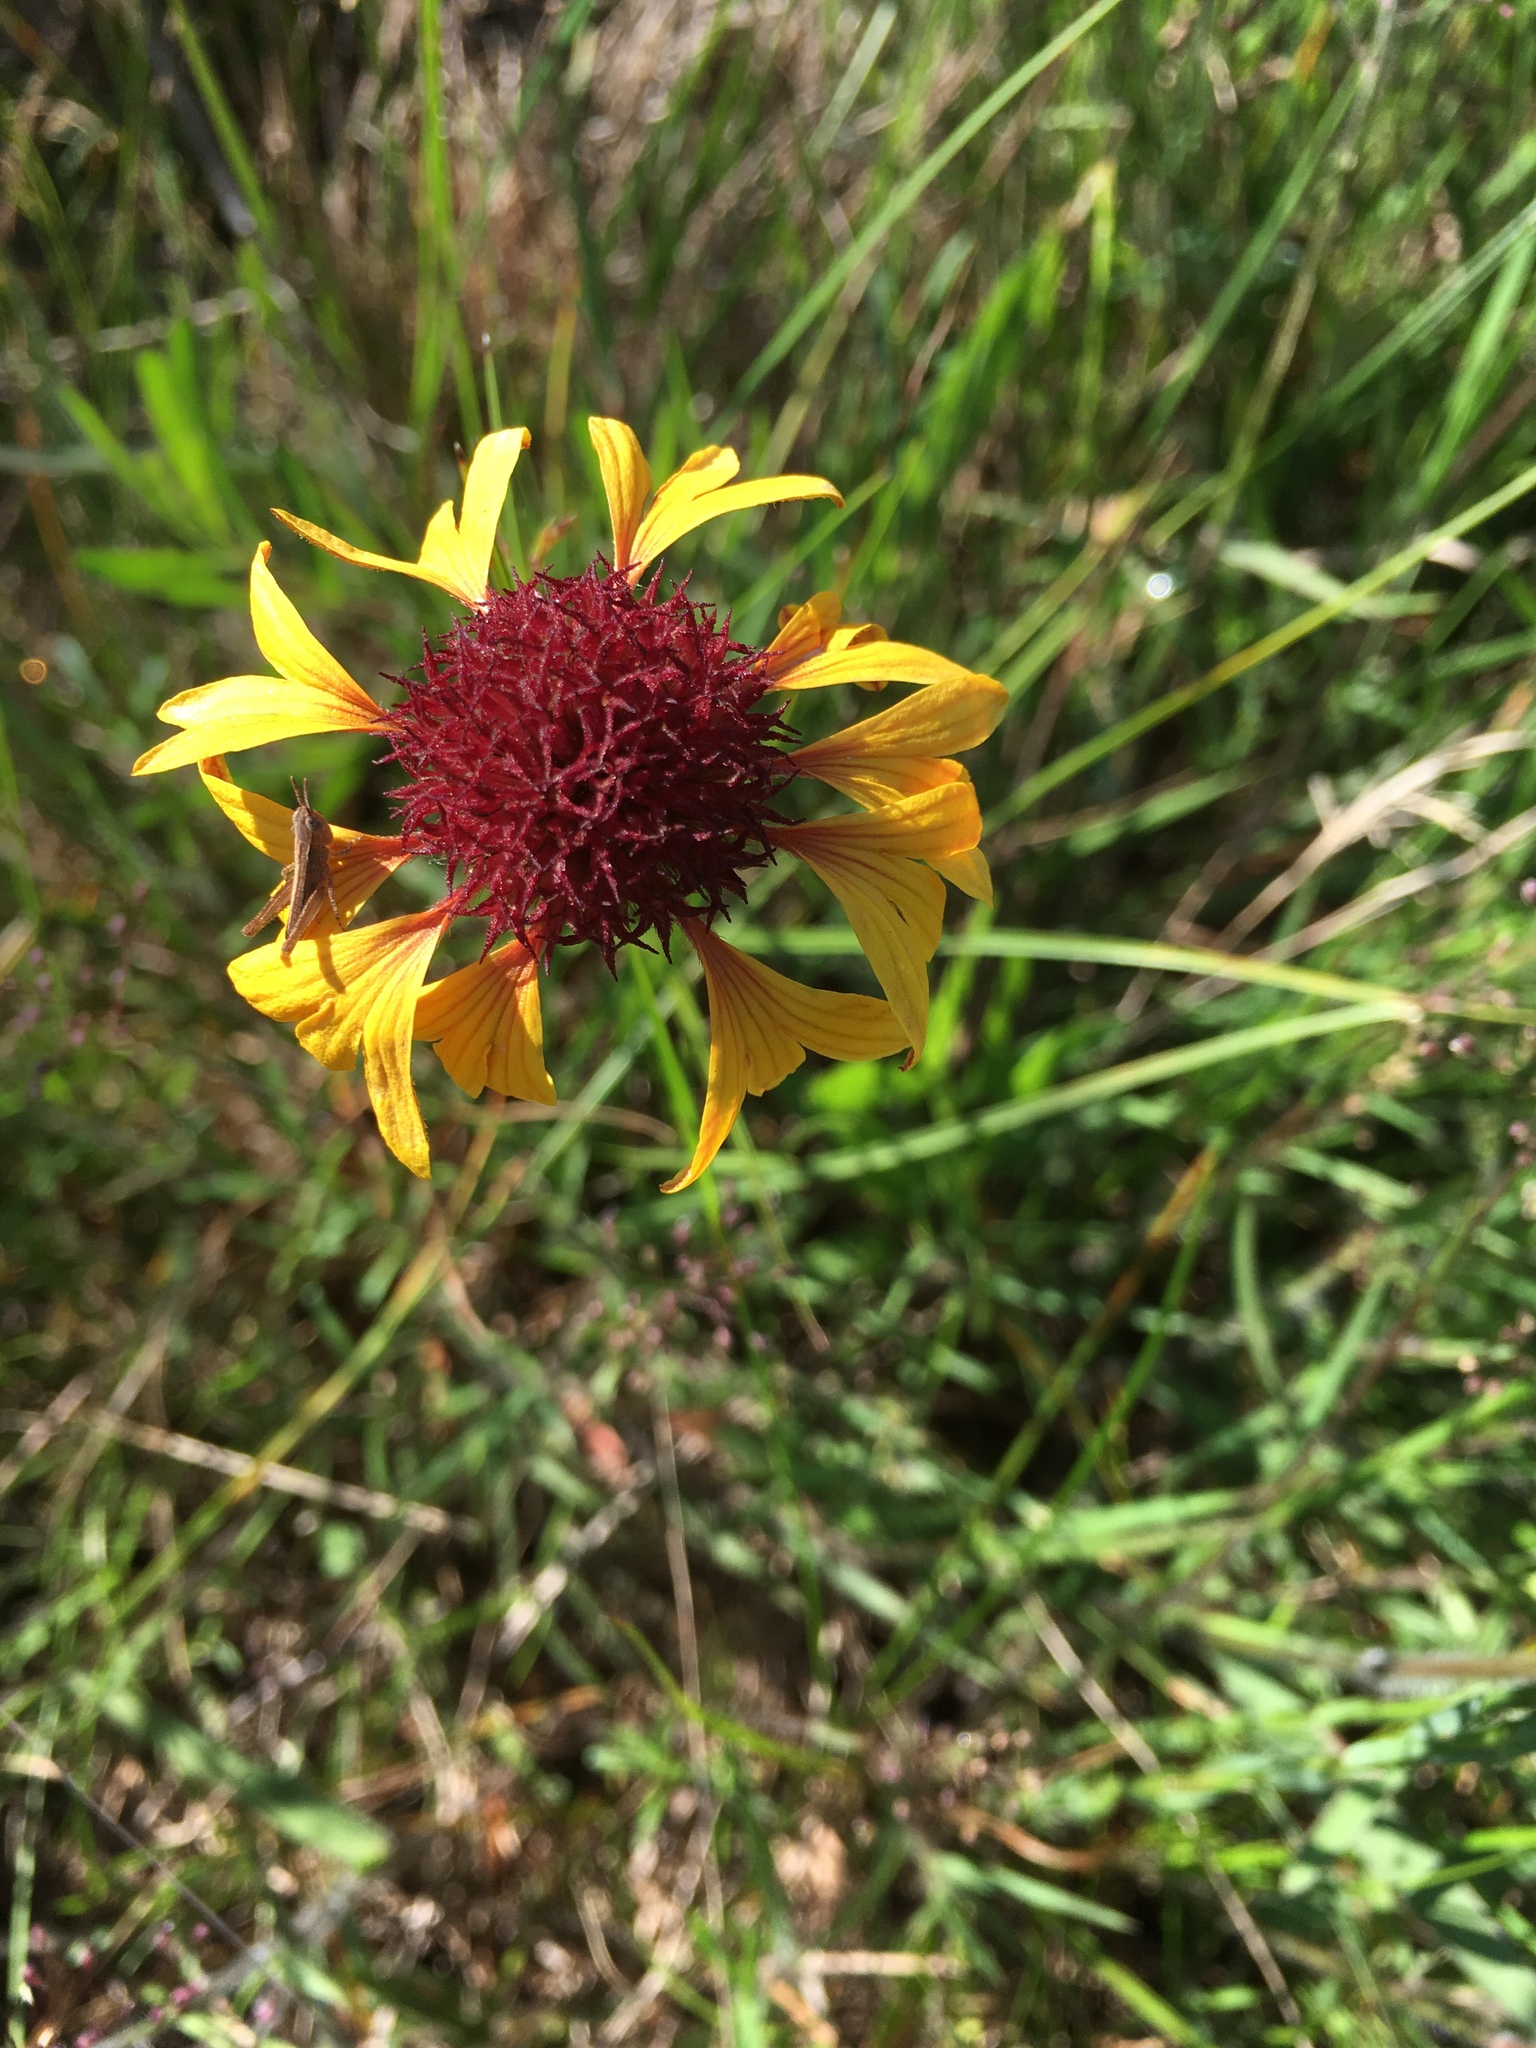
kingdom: Plantae
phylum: Tracheophyta
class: Magnoliopsida
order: Asterales
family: Asteraceae
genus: Gaillardia
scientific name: Gaillardia aestivalis
